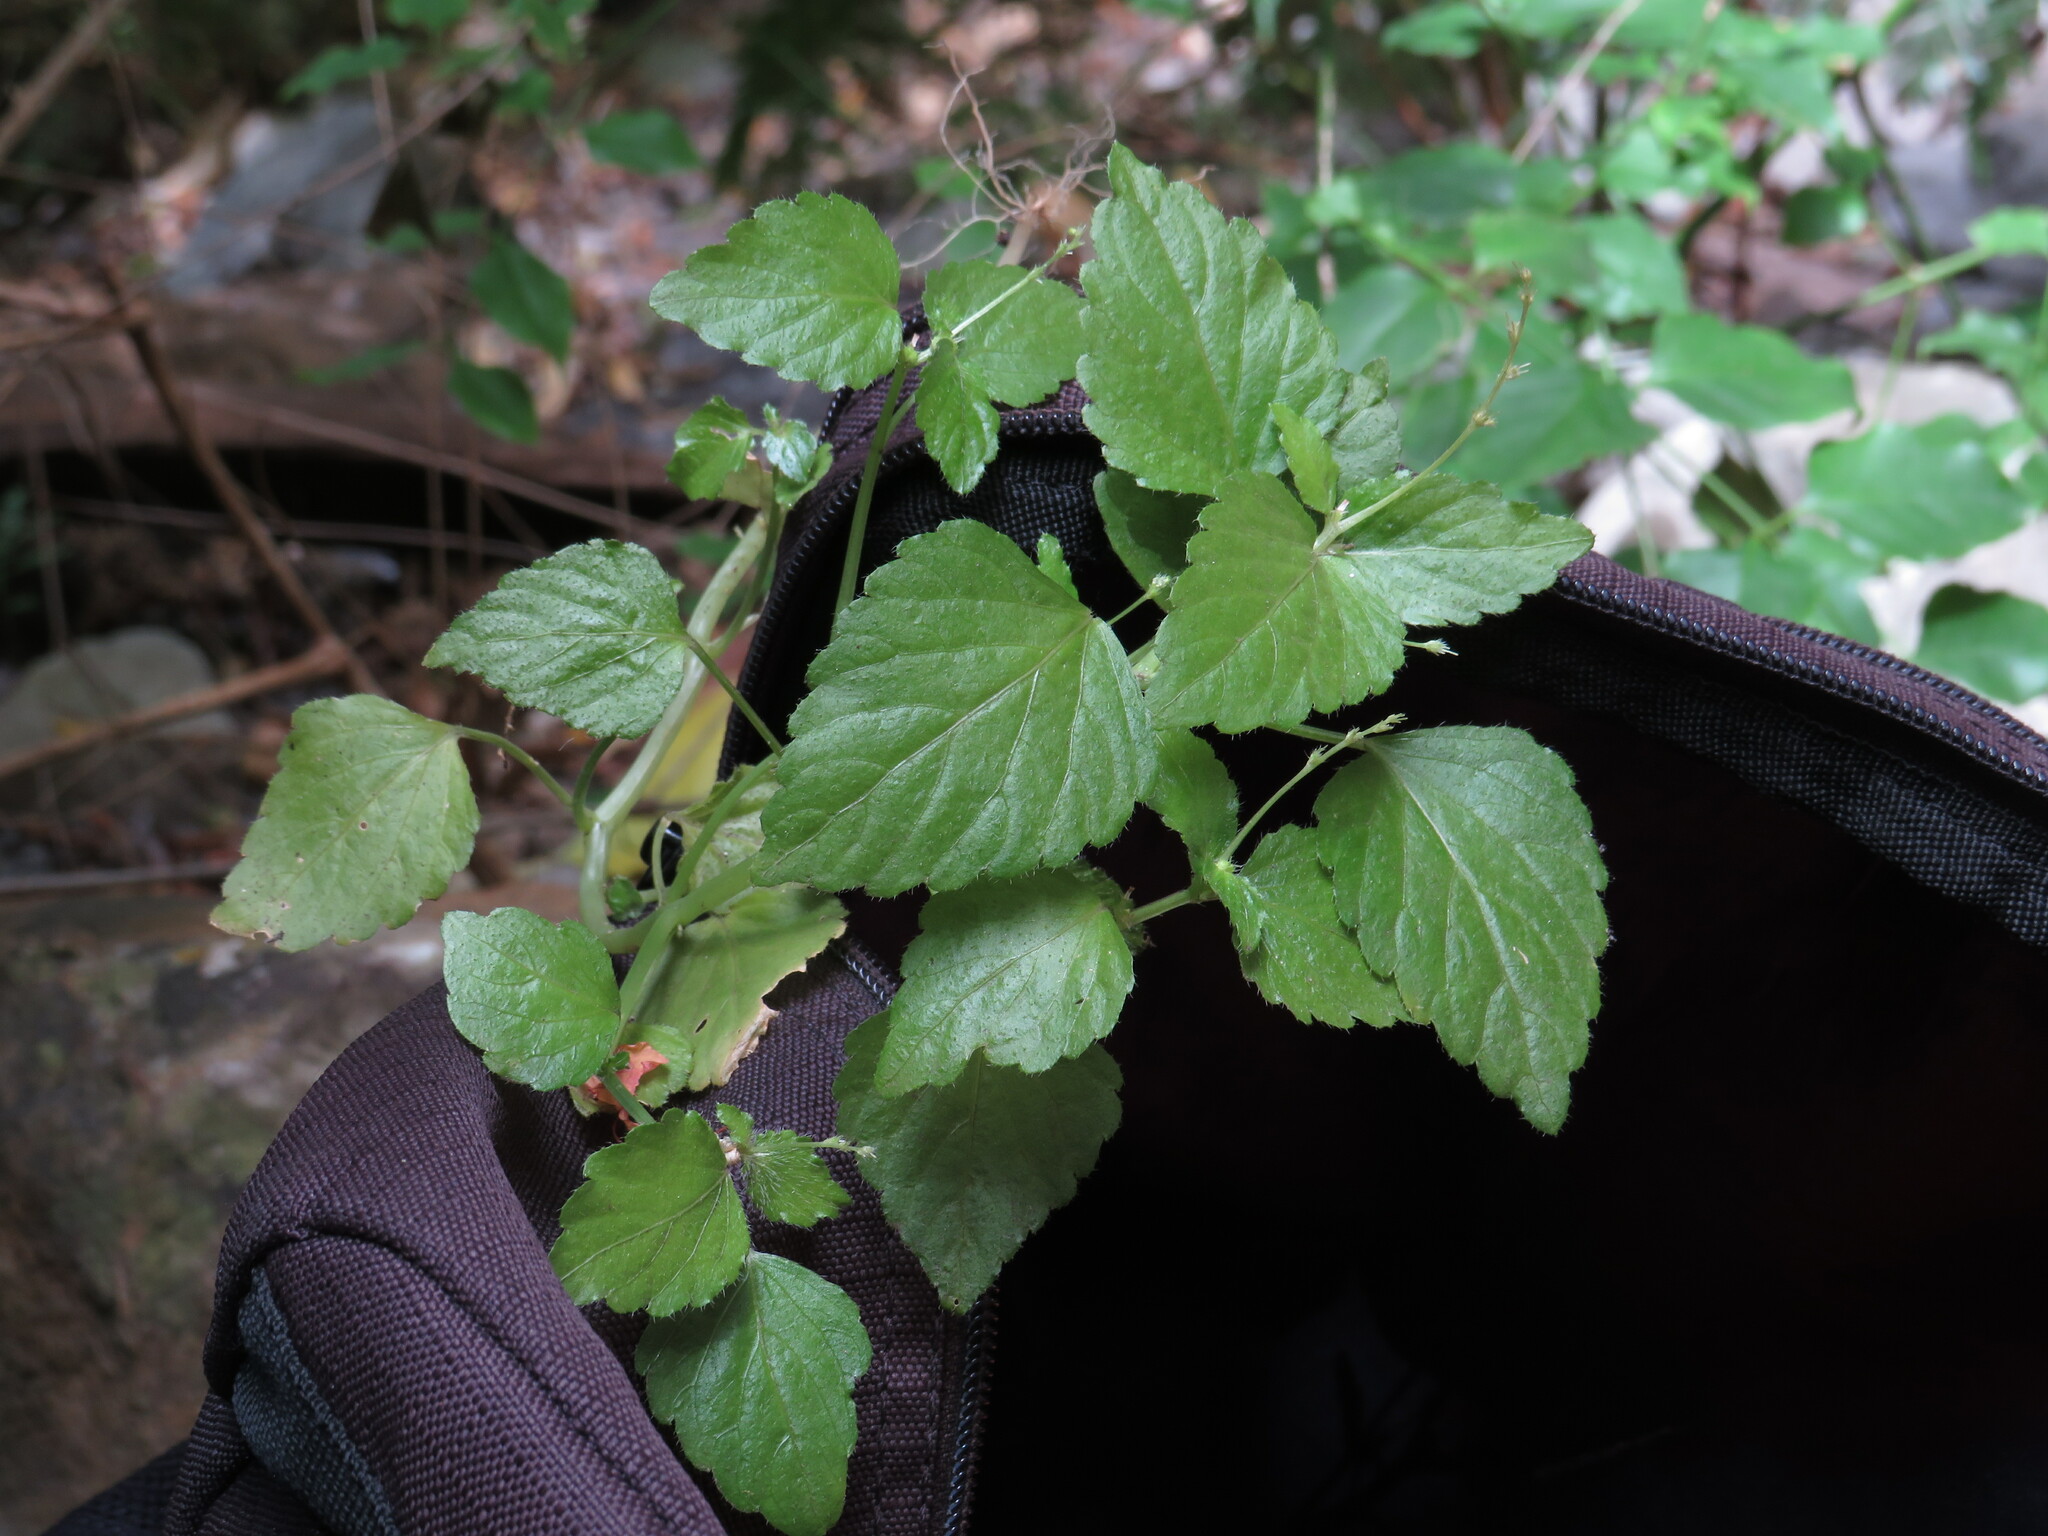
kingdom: Plantae
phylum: Tracheophyta
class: Magnoliopsida
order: Malpighiales
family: Euphorbiaceae
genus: Leidesia
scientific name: Leidesia procumbens
